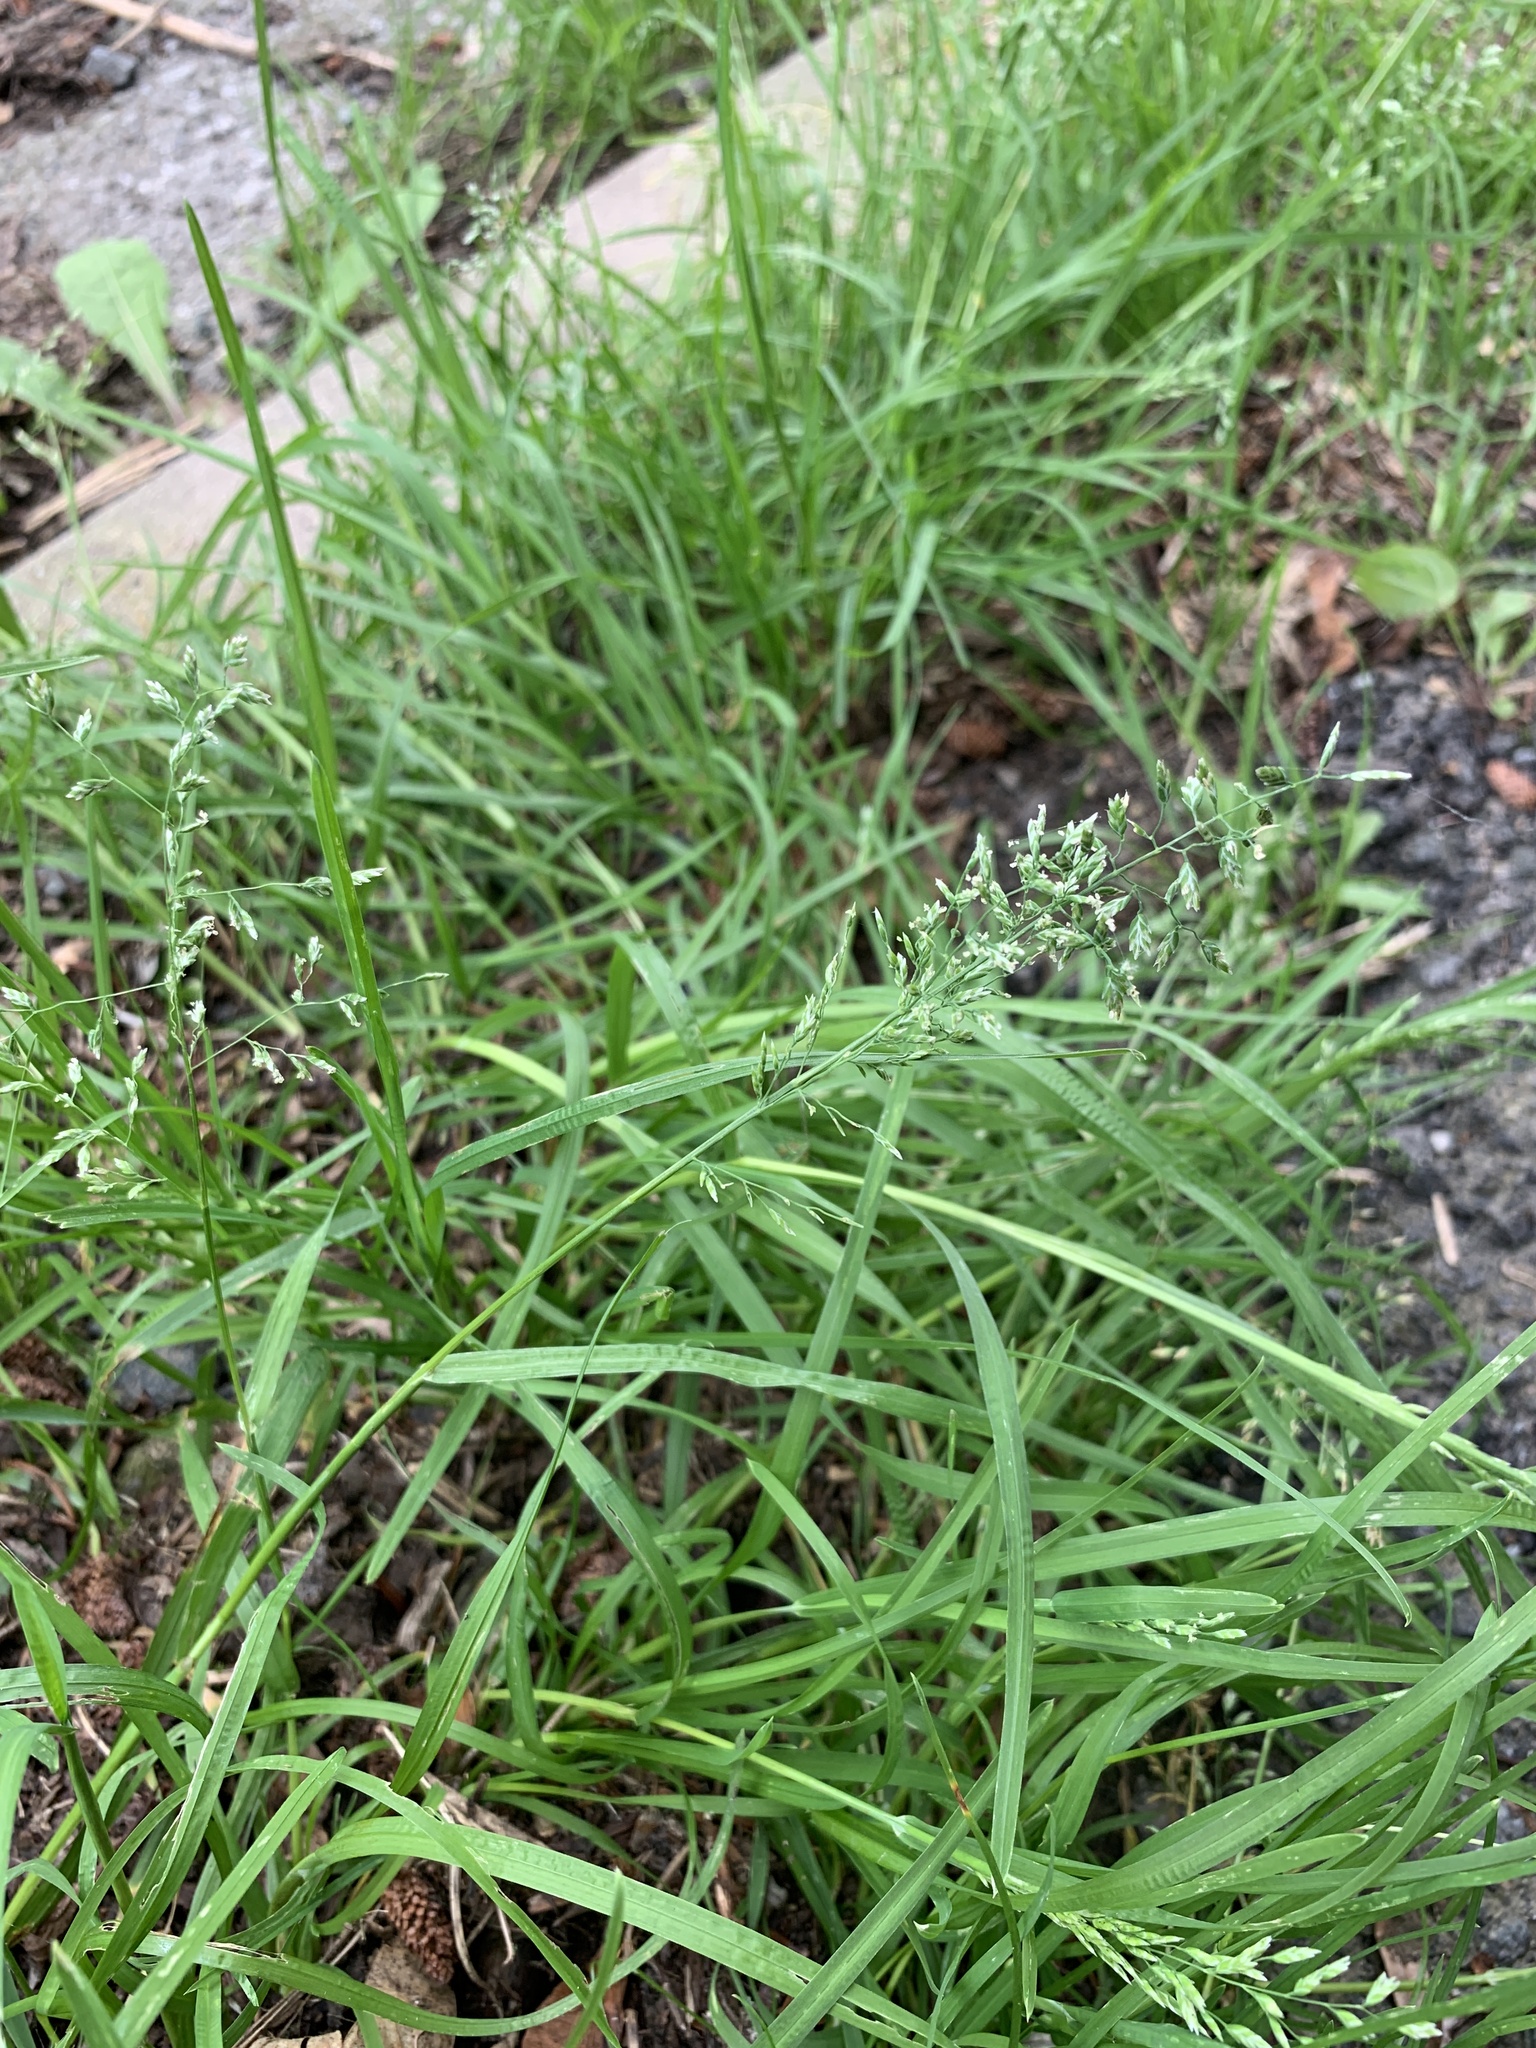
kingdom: Plantae
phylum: Tracheophyta
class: Liliopsida
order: Poales
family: Poaceae
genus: Poa
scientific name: Poa annua
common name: Annual bluegrass
